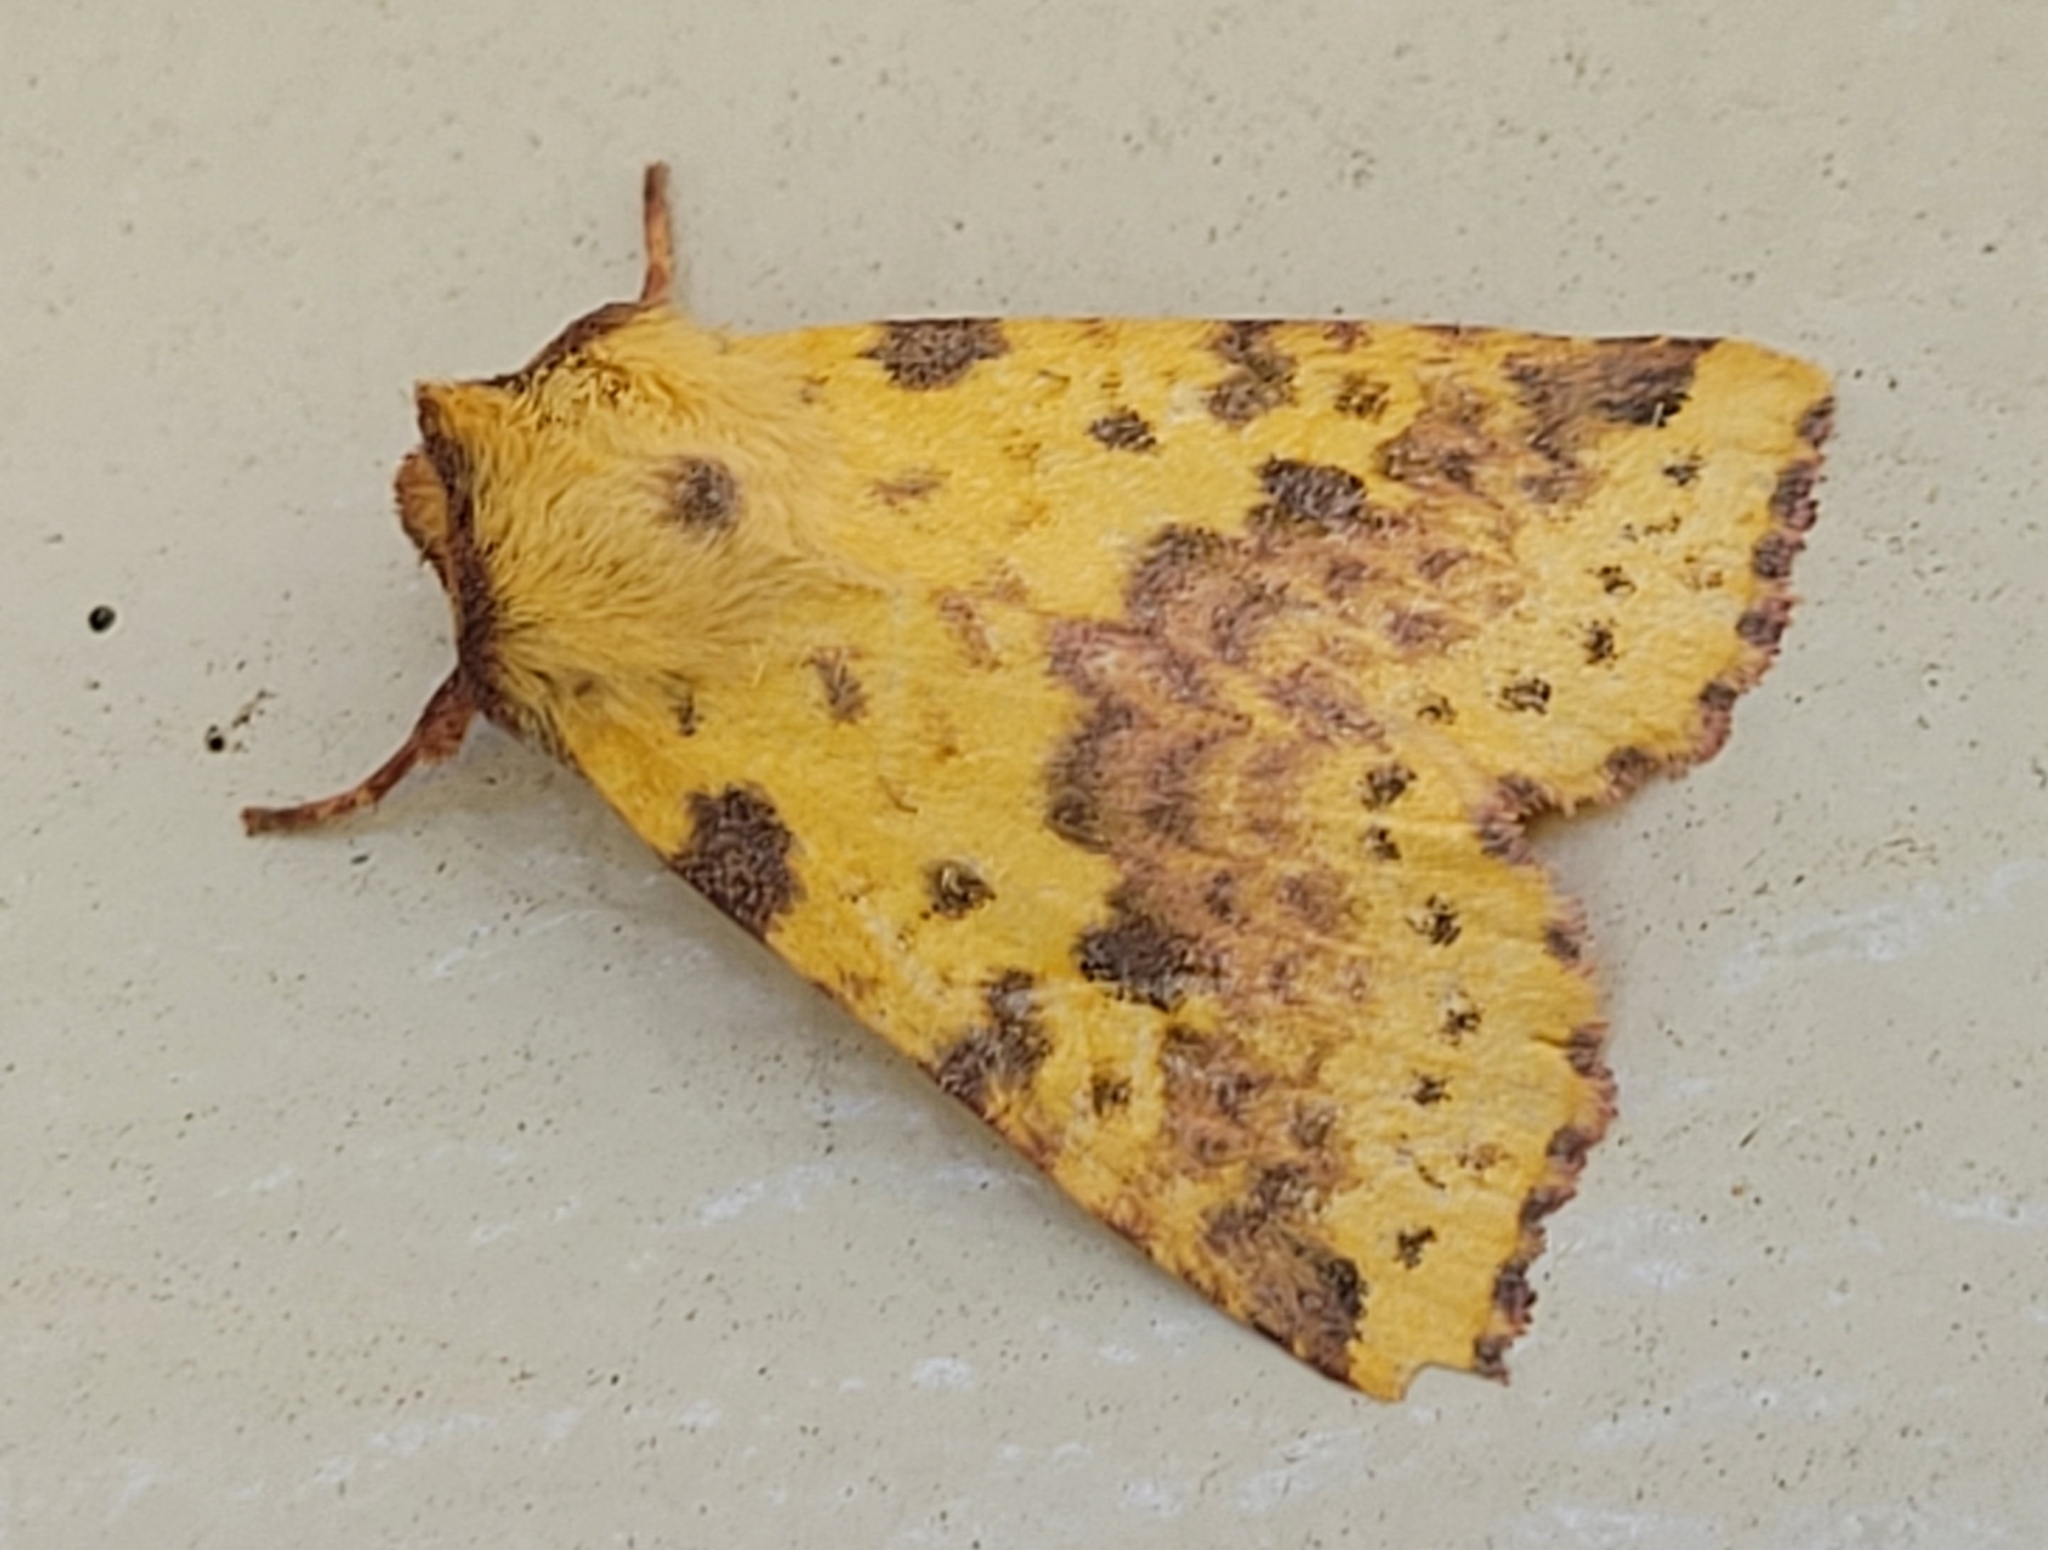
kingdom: Animalia
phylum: Arthropoda
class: Insecta
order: Lepidoptera
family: Noctuidae
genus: Xanthia
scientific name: Xanthia tatago
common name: Pink-banded sallow
